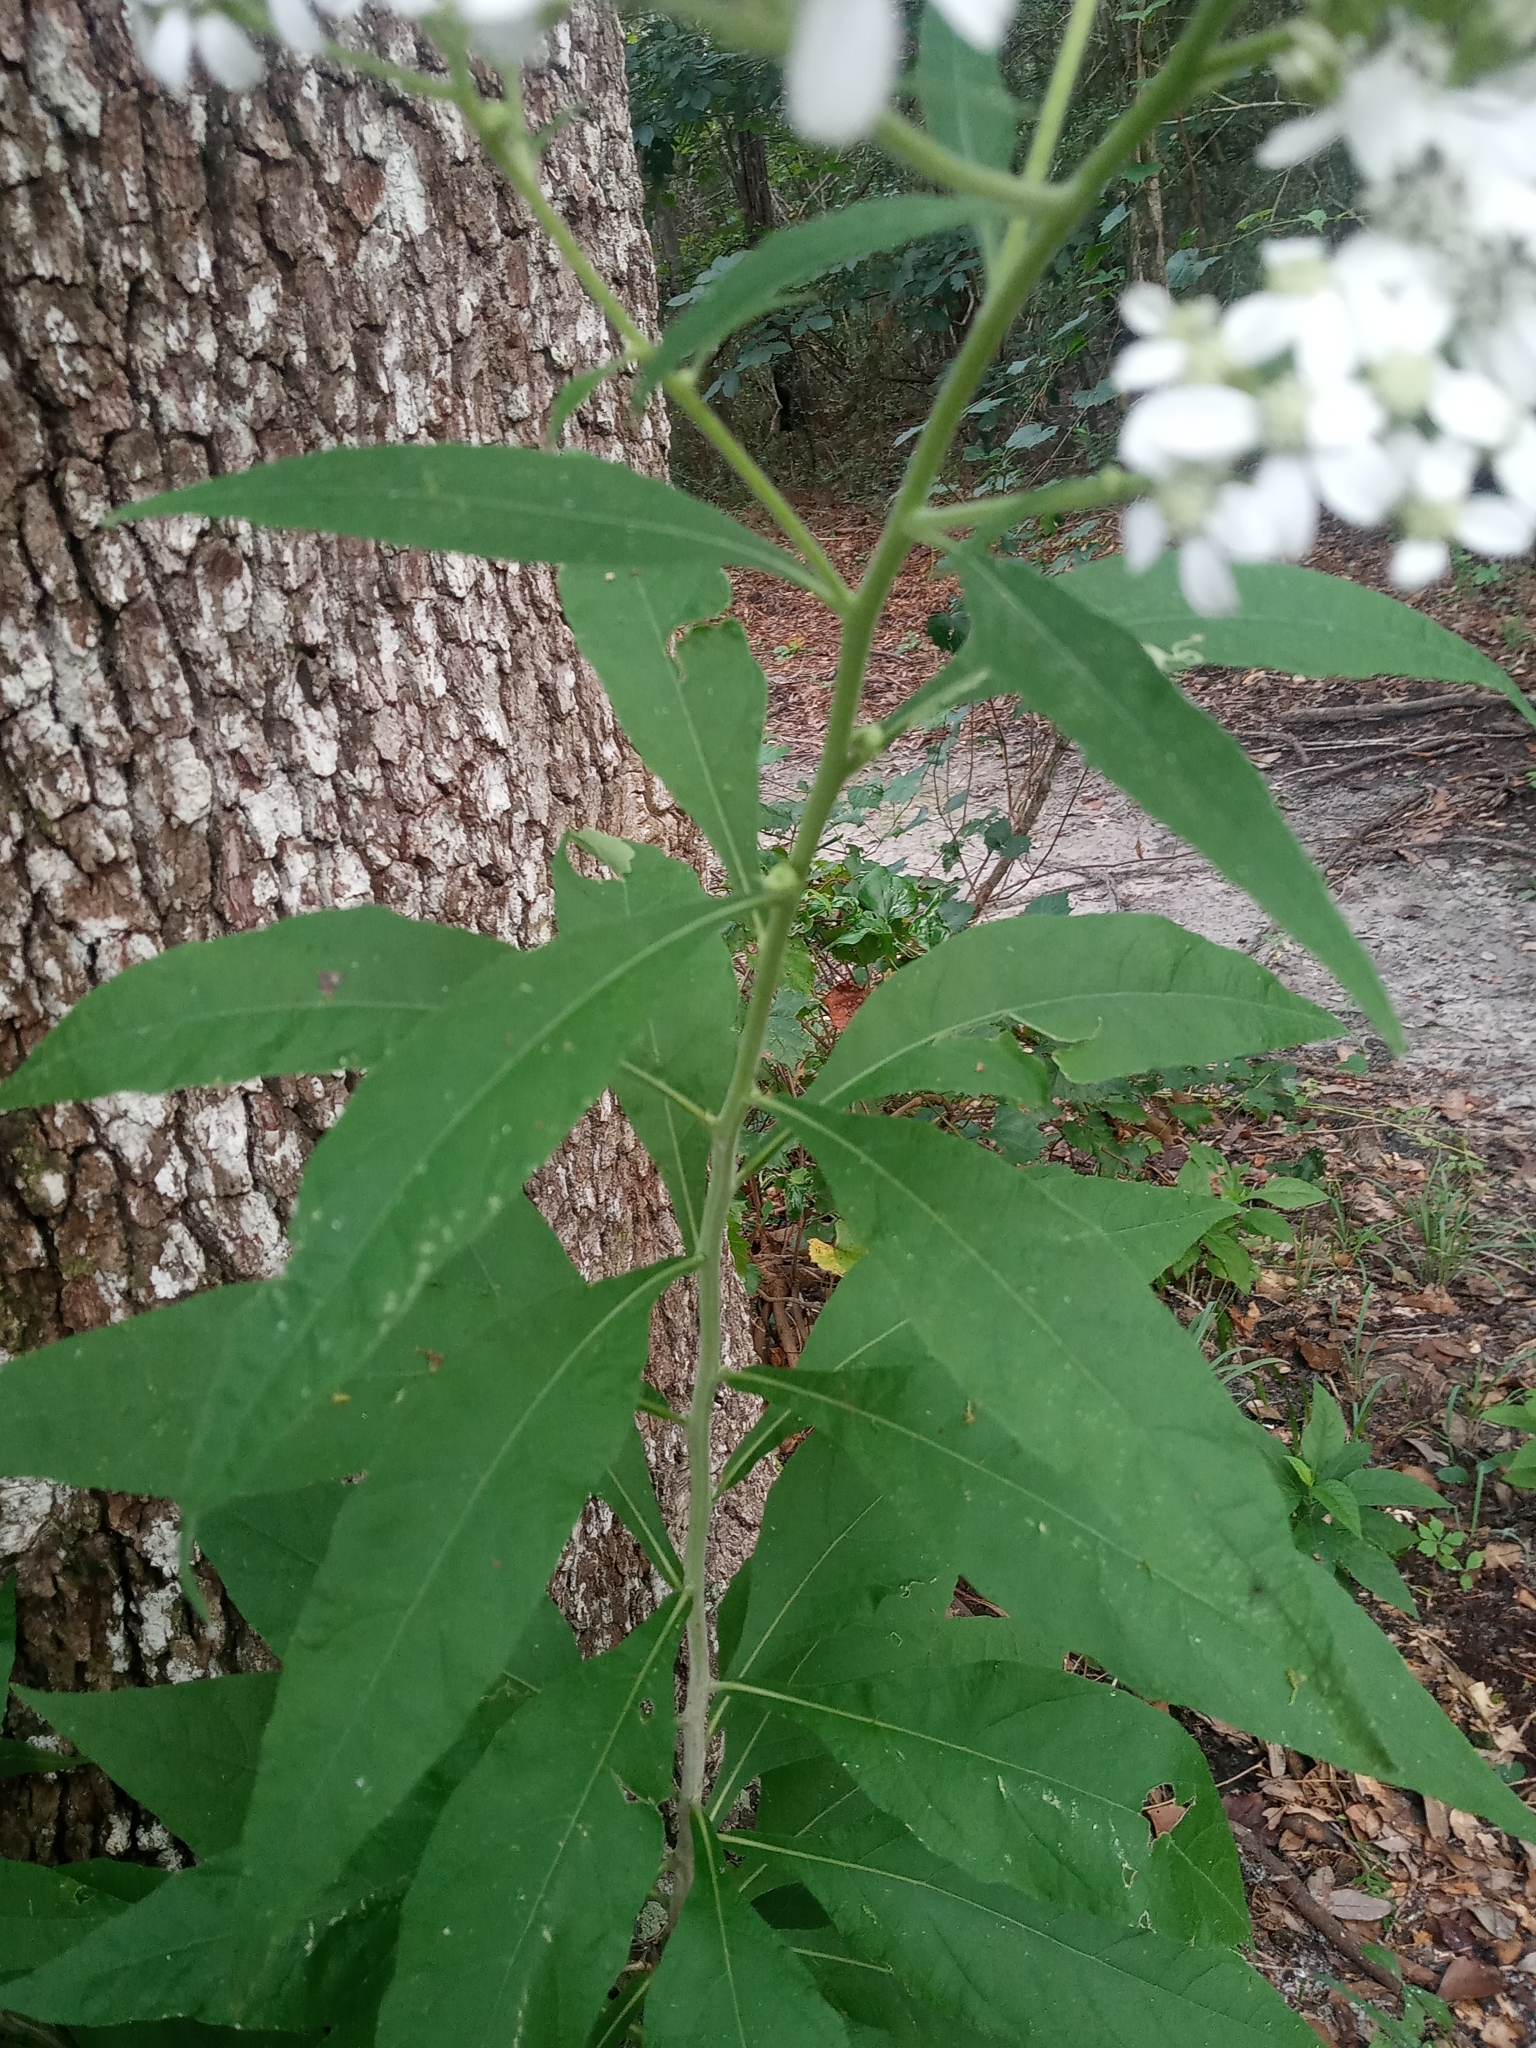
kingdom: Plantae
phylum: Tracheophyta
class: Magnoliopsida
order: Asterales
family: Asteraceae
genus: Verbesina
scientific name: Verbesina virginica
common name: Frostweed
